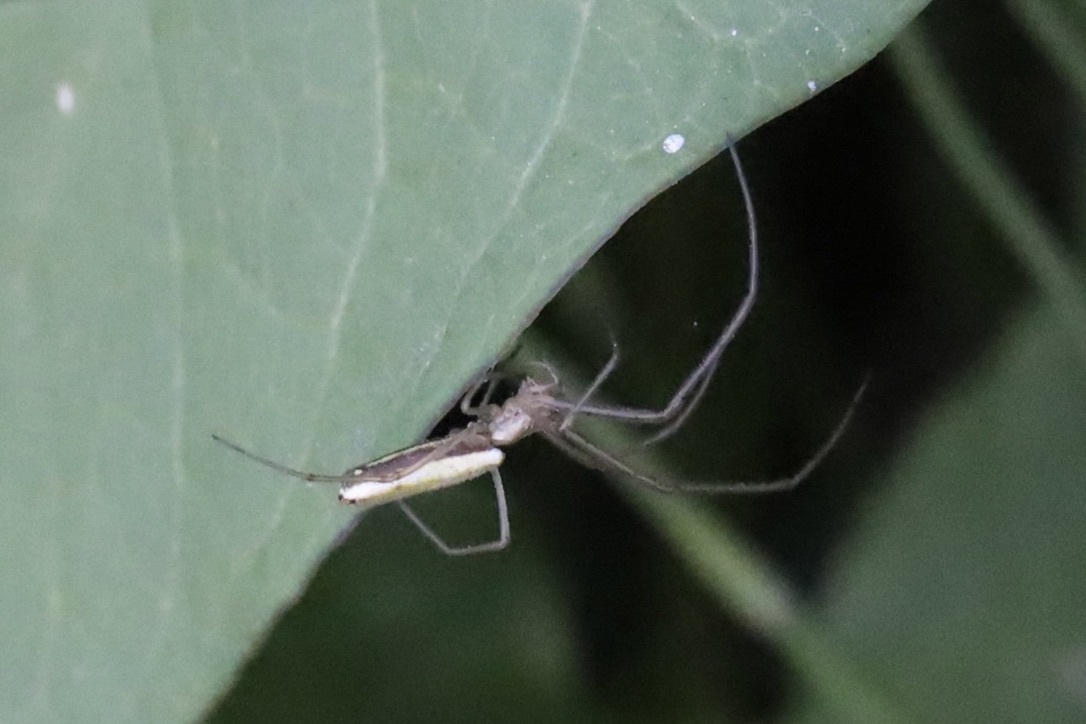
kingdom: Animalia
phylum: Arthropoda
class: Arachnida
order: Araneae
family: Tetragnathidae
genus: Tetragnatha
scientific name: Tetragnatha laboriosa
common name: Longjawed orb weavers
